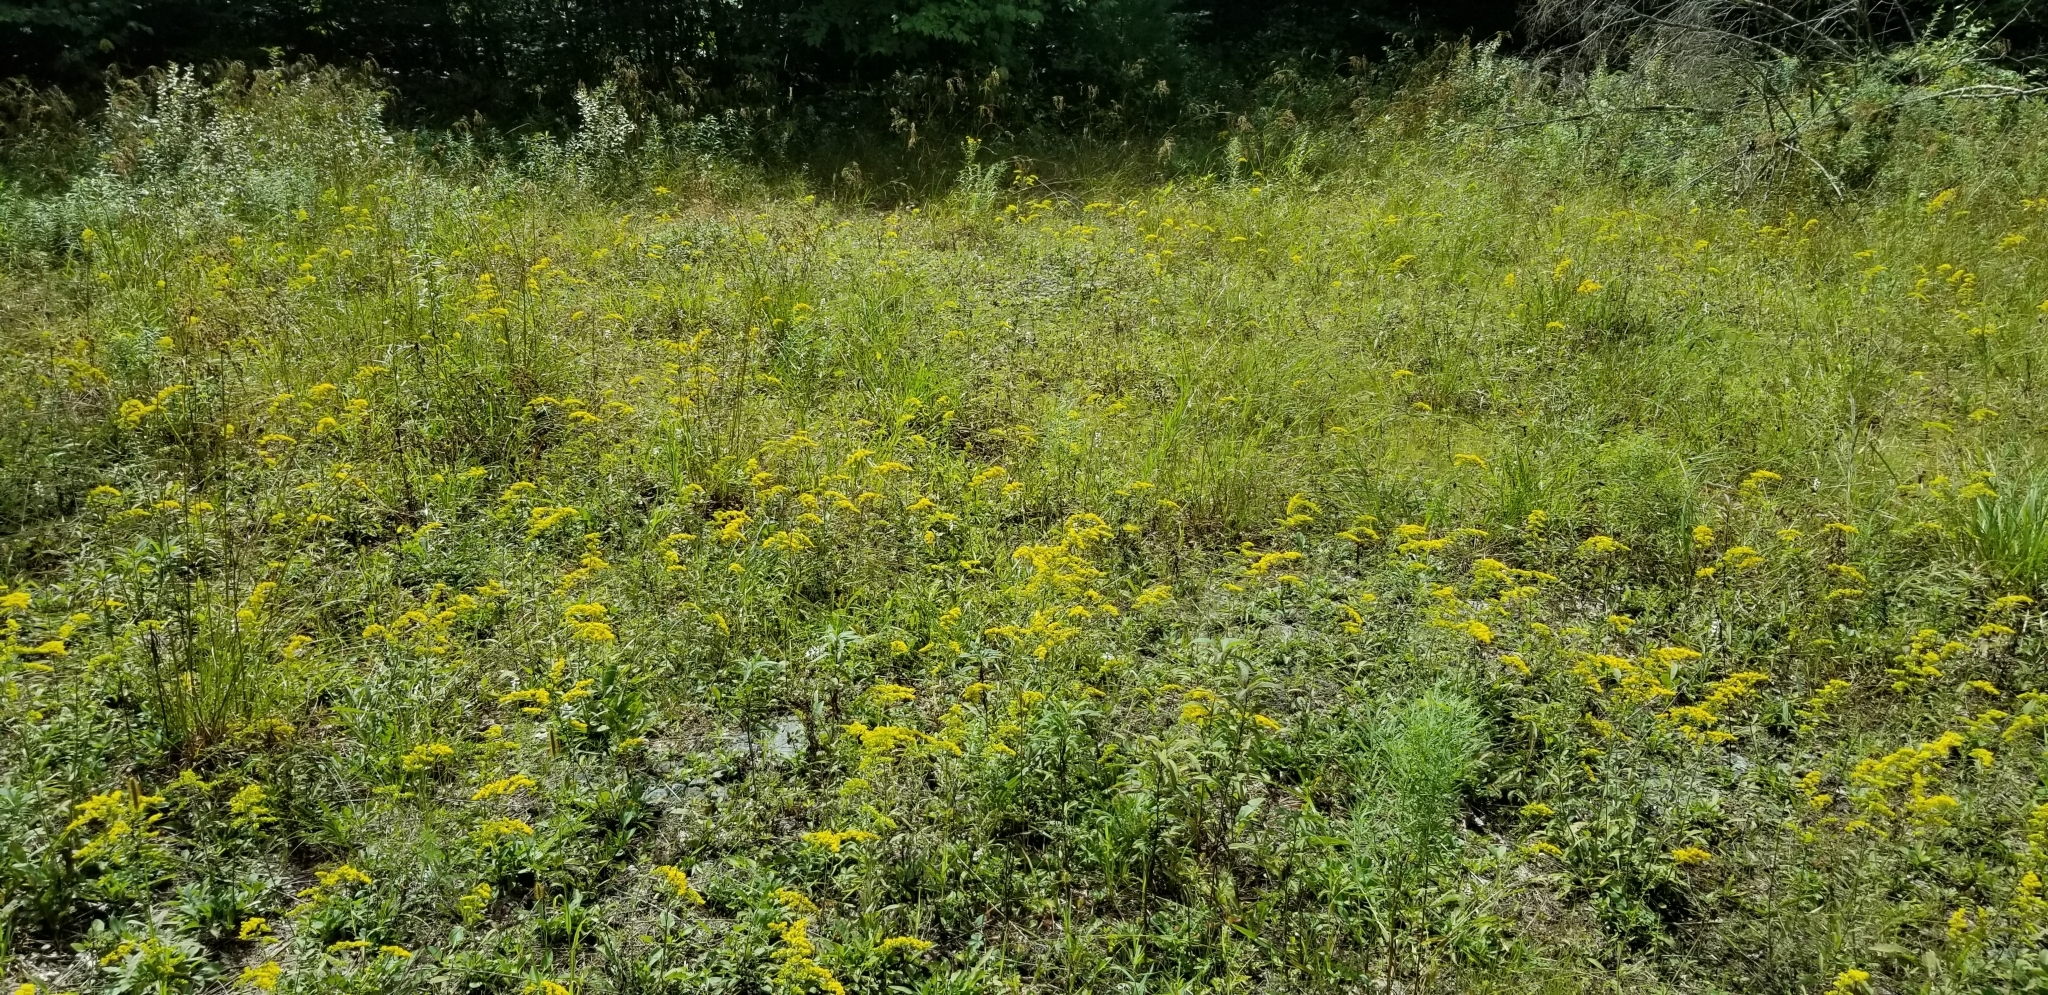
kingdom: Plantae
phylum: Tracheophyta
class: Liliopsida
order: Asparagales
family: Orchidaceae
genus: Spiranthes
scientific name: Spiranthes incurva
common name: Sphinx ladies'-tresses
